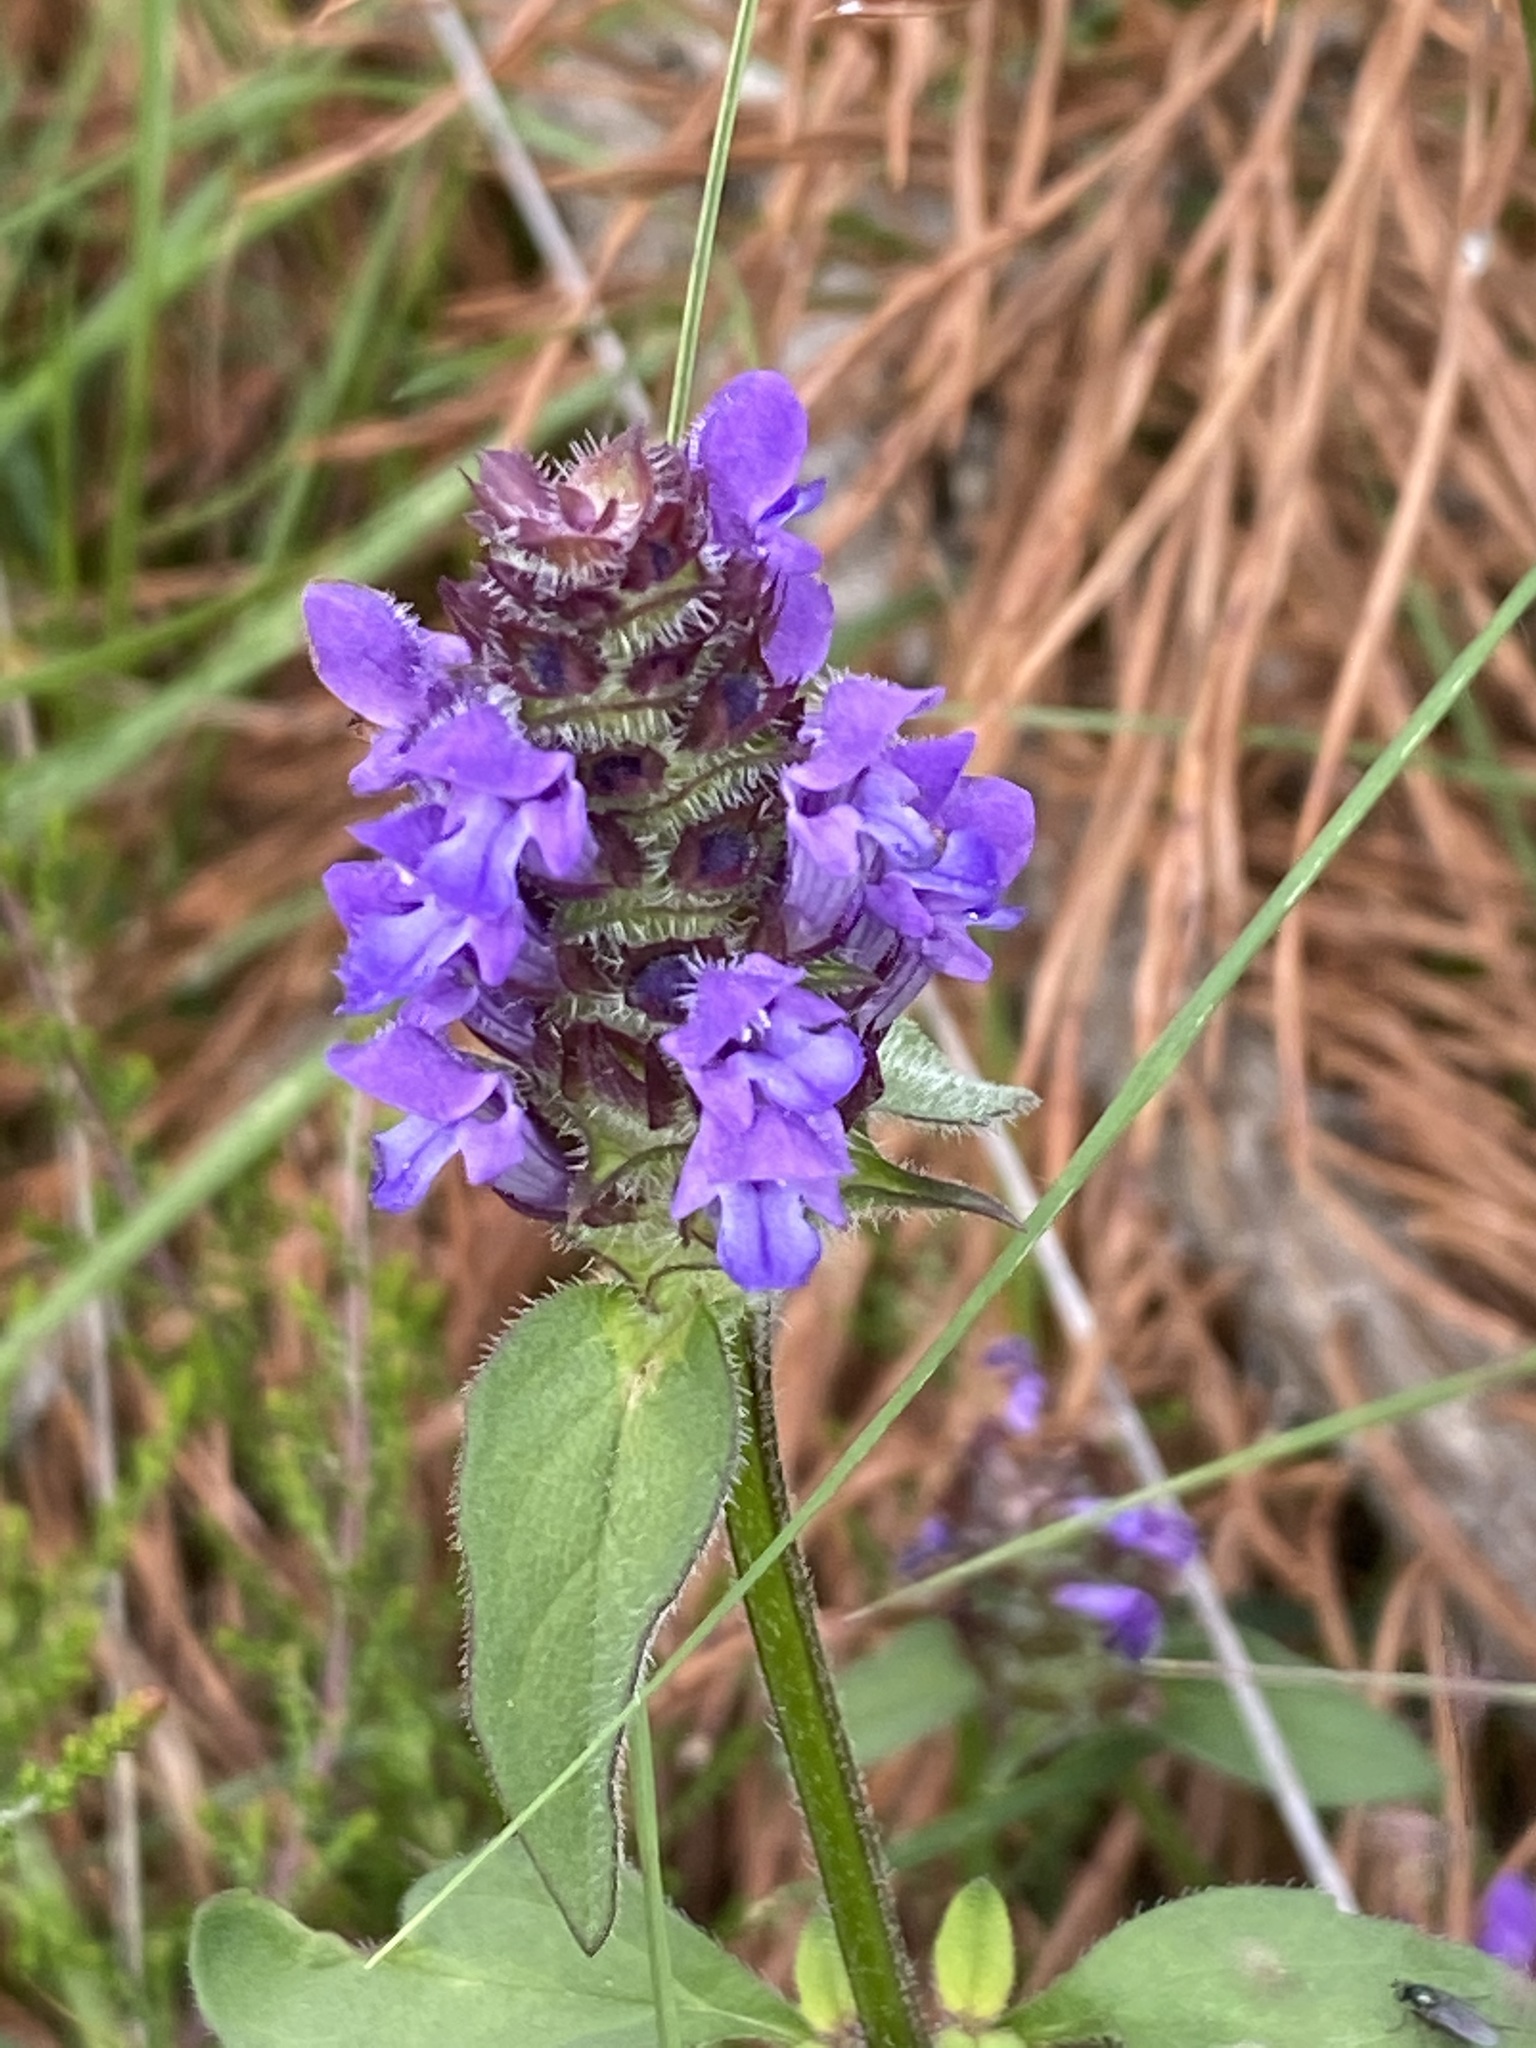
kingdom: Plantae
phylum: Tracheophyta
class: Magnoliopsida
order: Lamiales
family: Lamiaceae
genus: Prunella
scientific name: Prunella vulgaris
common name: Heal-all
